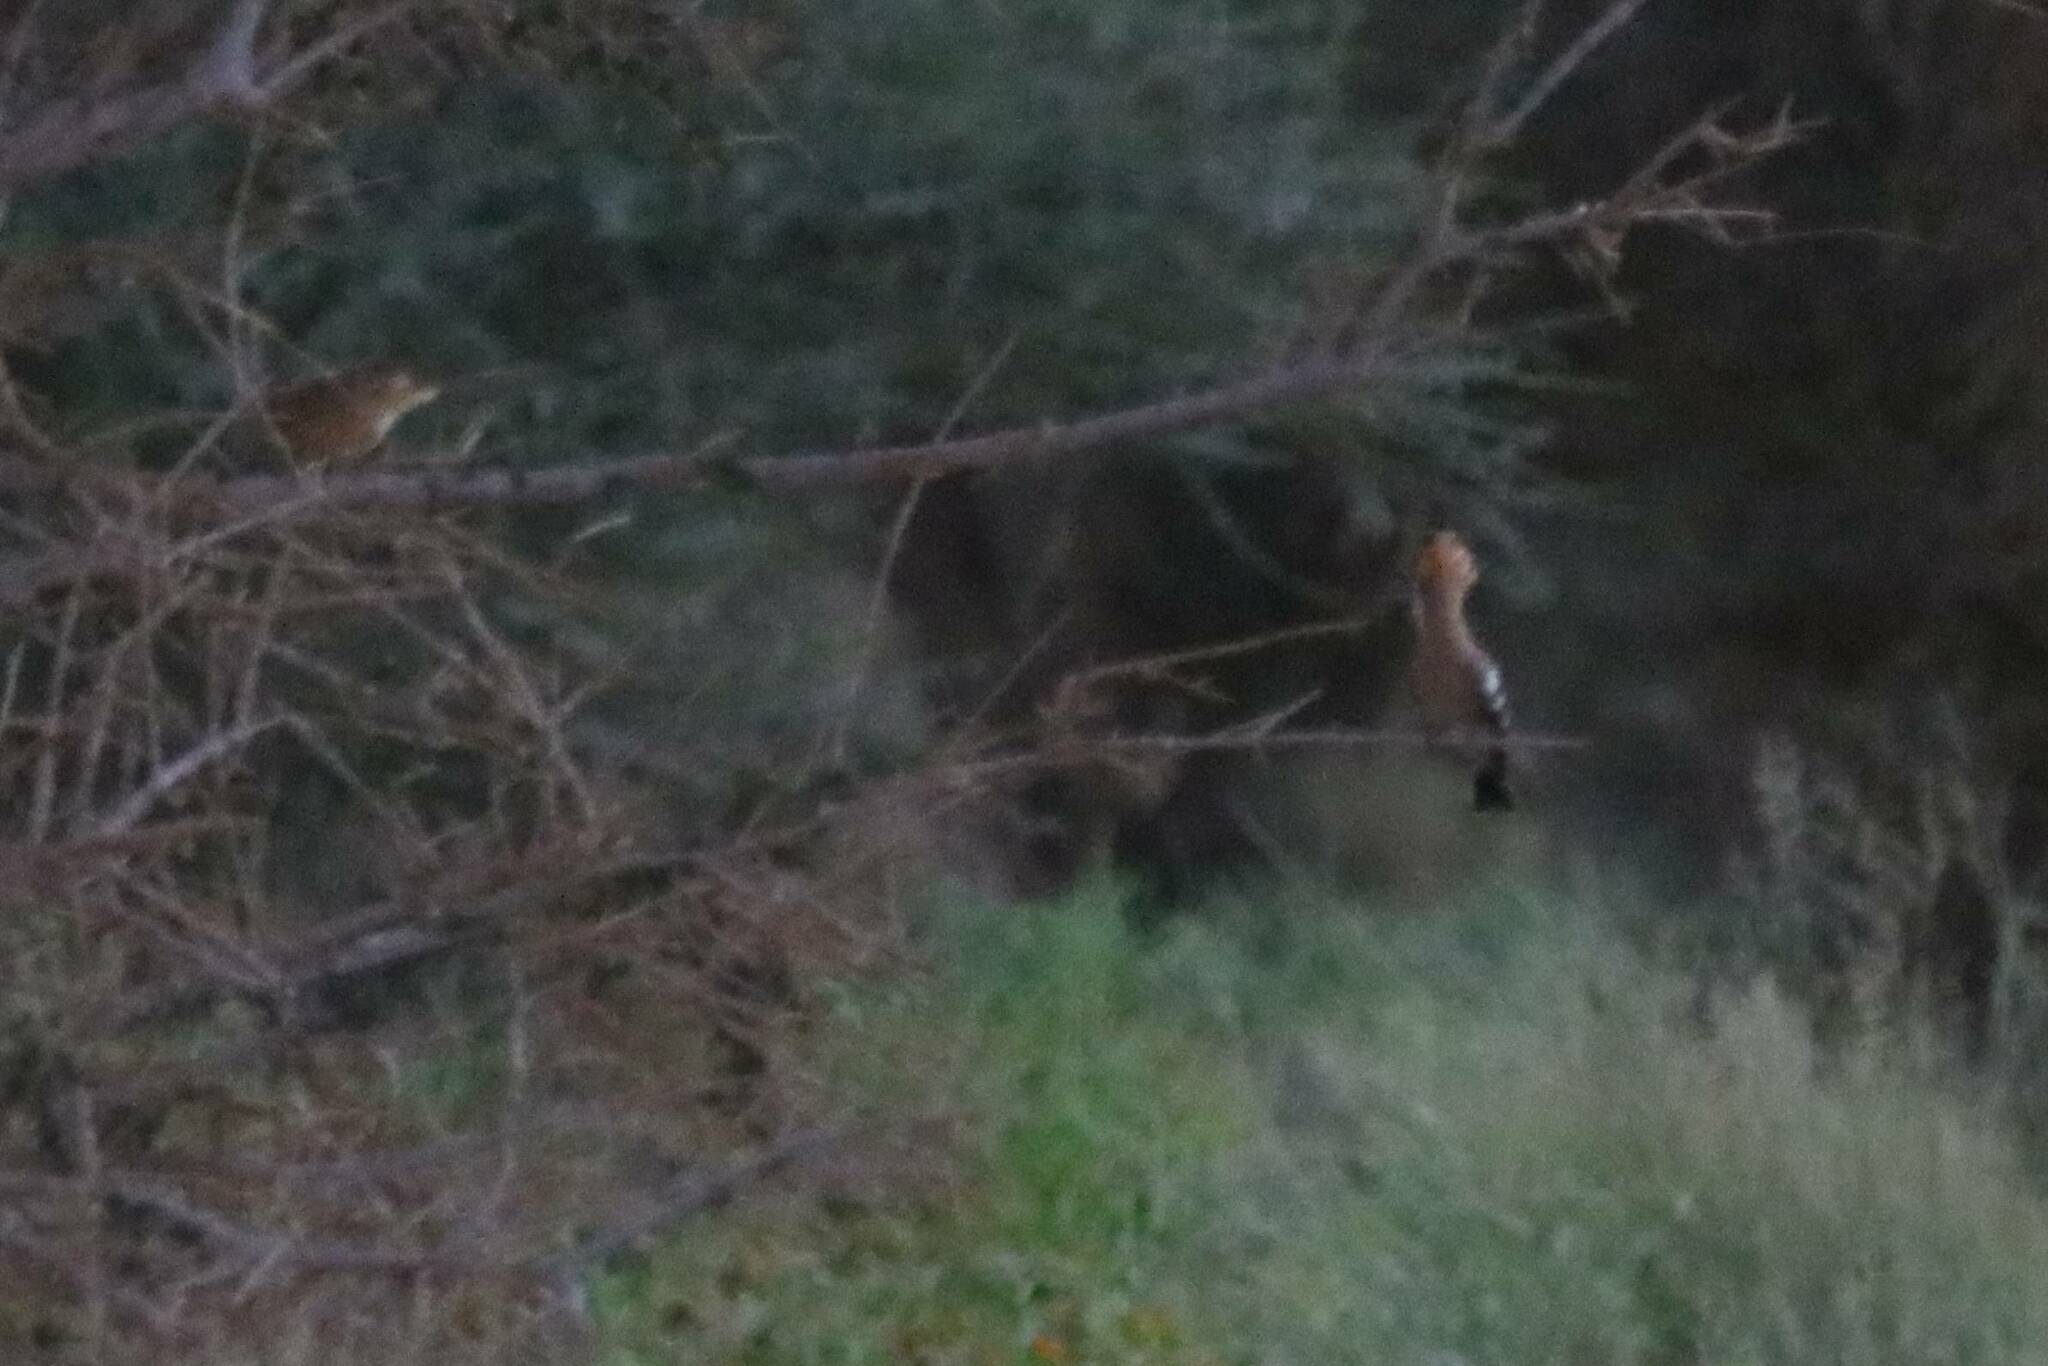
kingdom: Animalia
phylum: Chordata
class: Aves
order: Bucerotiformes
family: Upupidae
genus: Upupa
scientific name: Upupa epops
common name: Eurasian hoopoe
